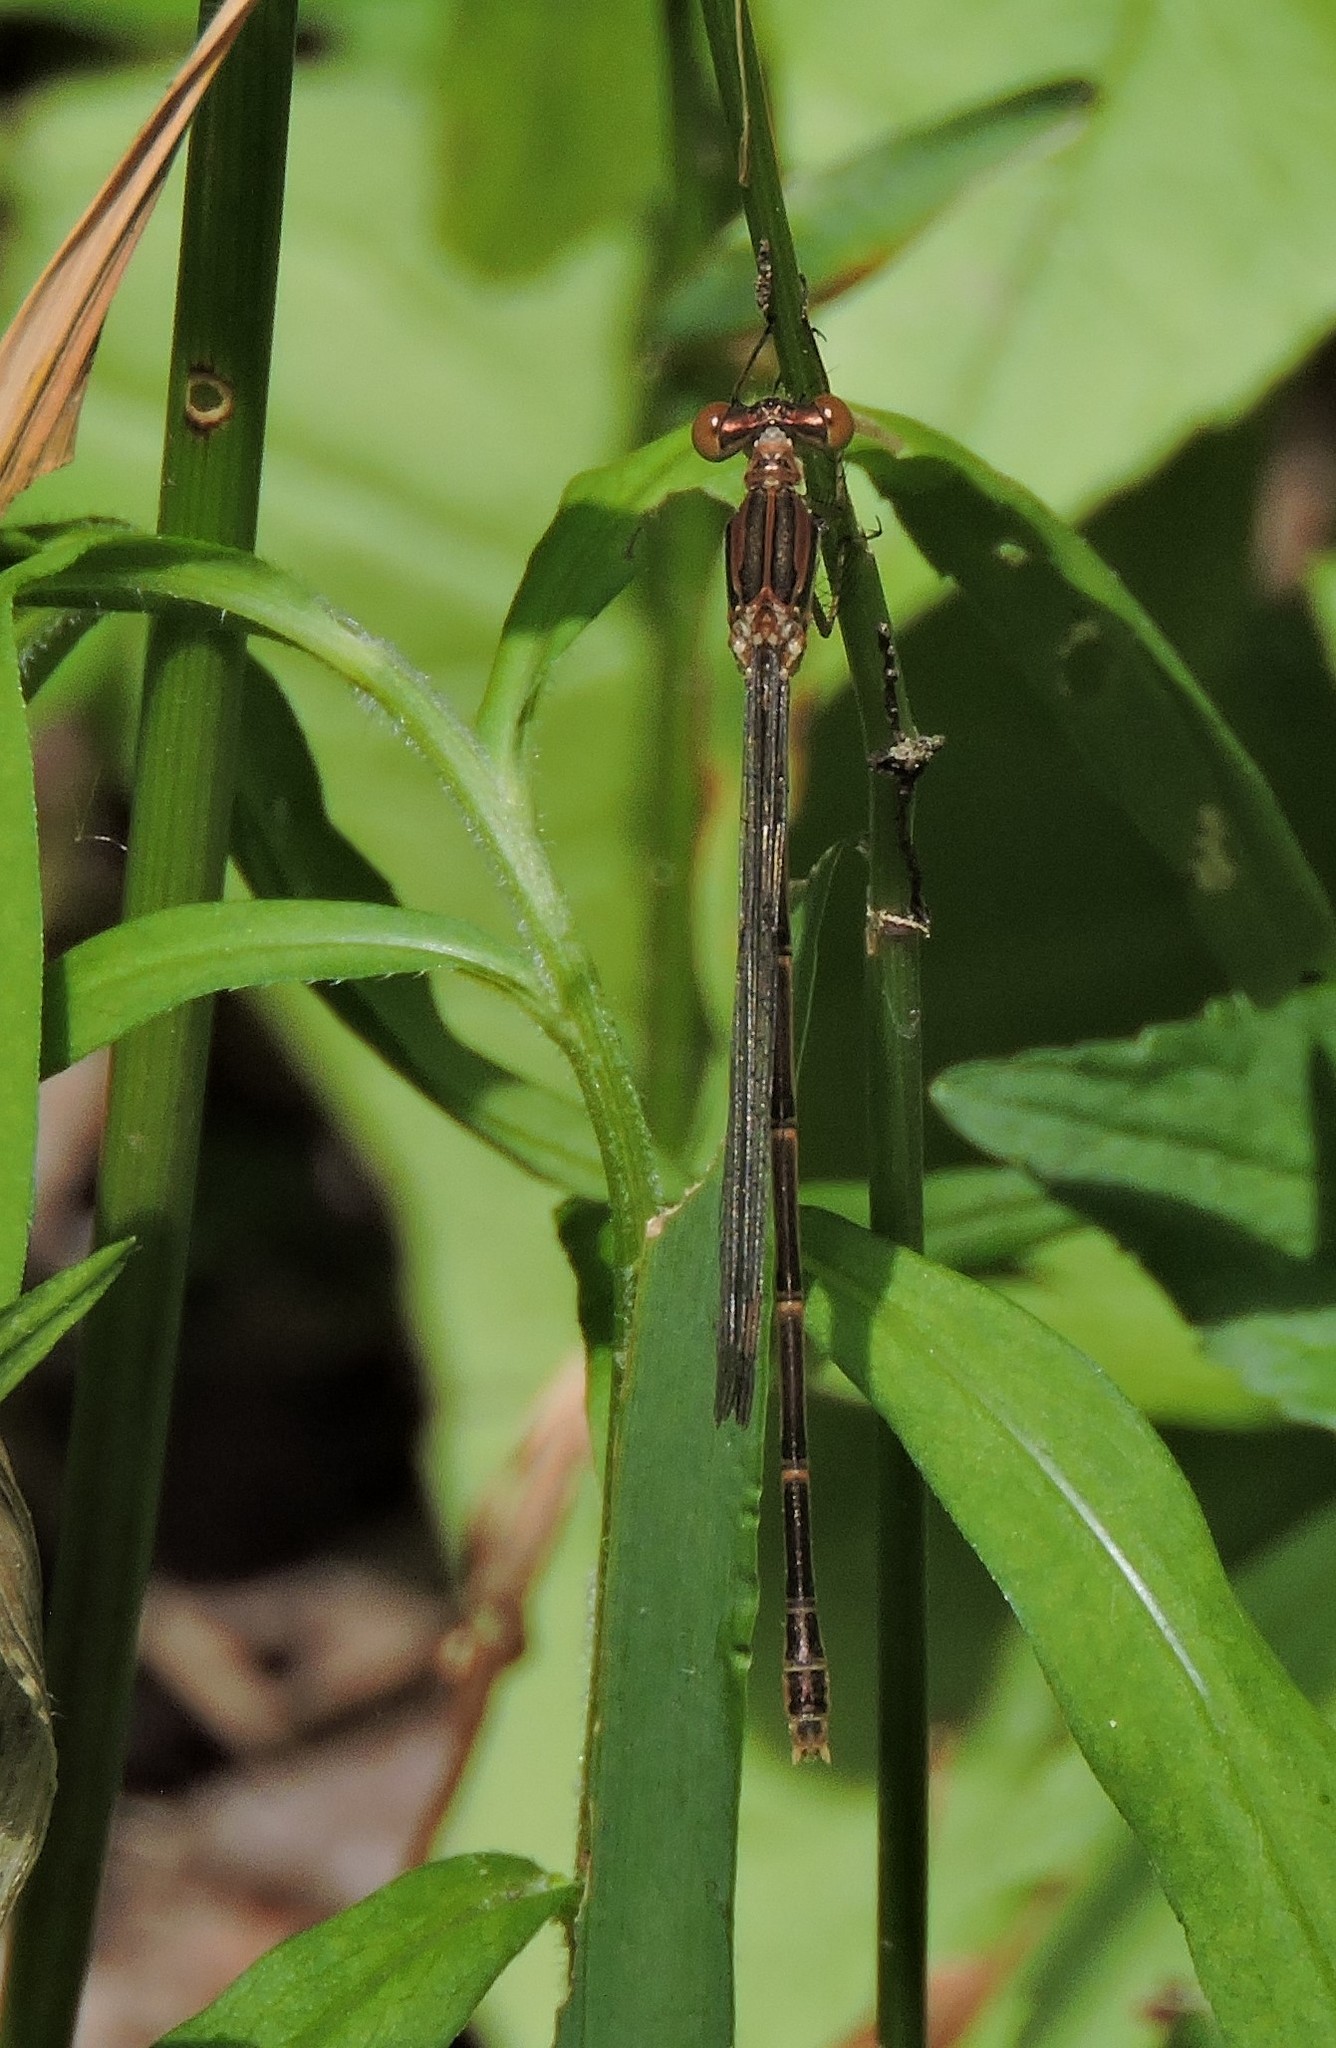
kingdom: Animalia
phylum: Arthropoda
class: Insecta
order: Odonata
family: Lestidae
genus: Lestes
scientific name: Lestes rectangularis
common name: Slender spreadwing
